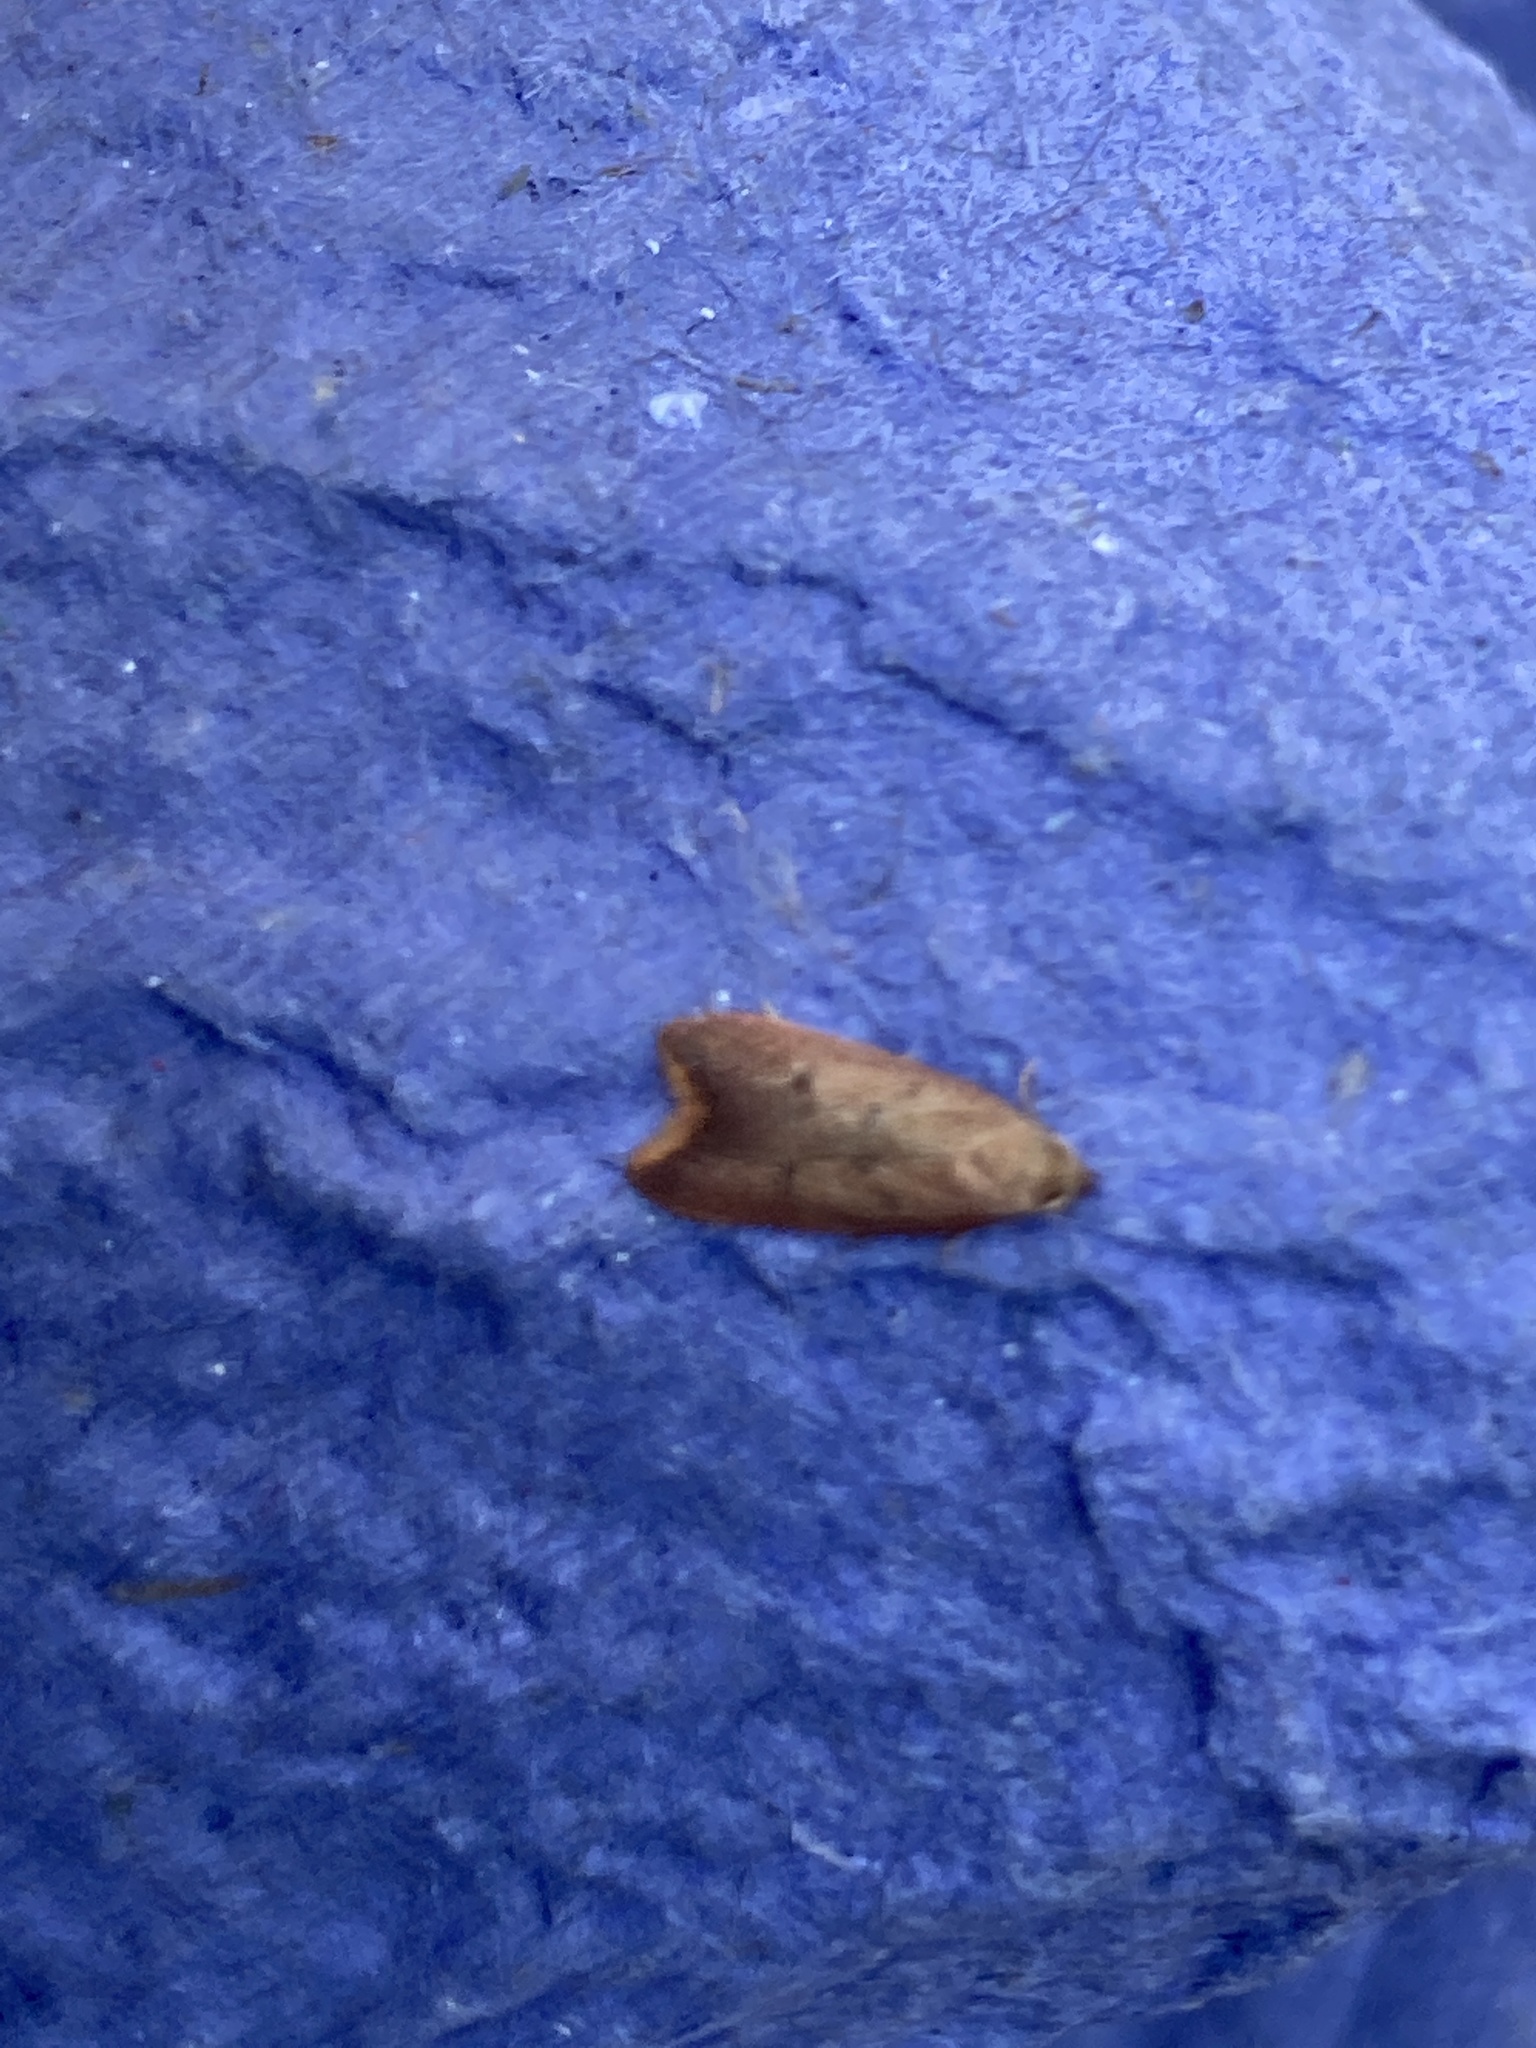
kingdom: Animalia
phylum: Arthropoda
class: Insecta
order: Lepidoptera
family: Oecophoridae
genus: Tachystola
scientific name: Tachystola acroxantha
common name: Ruddy streak
